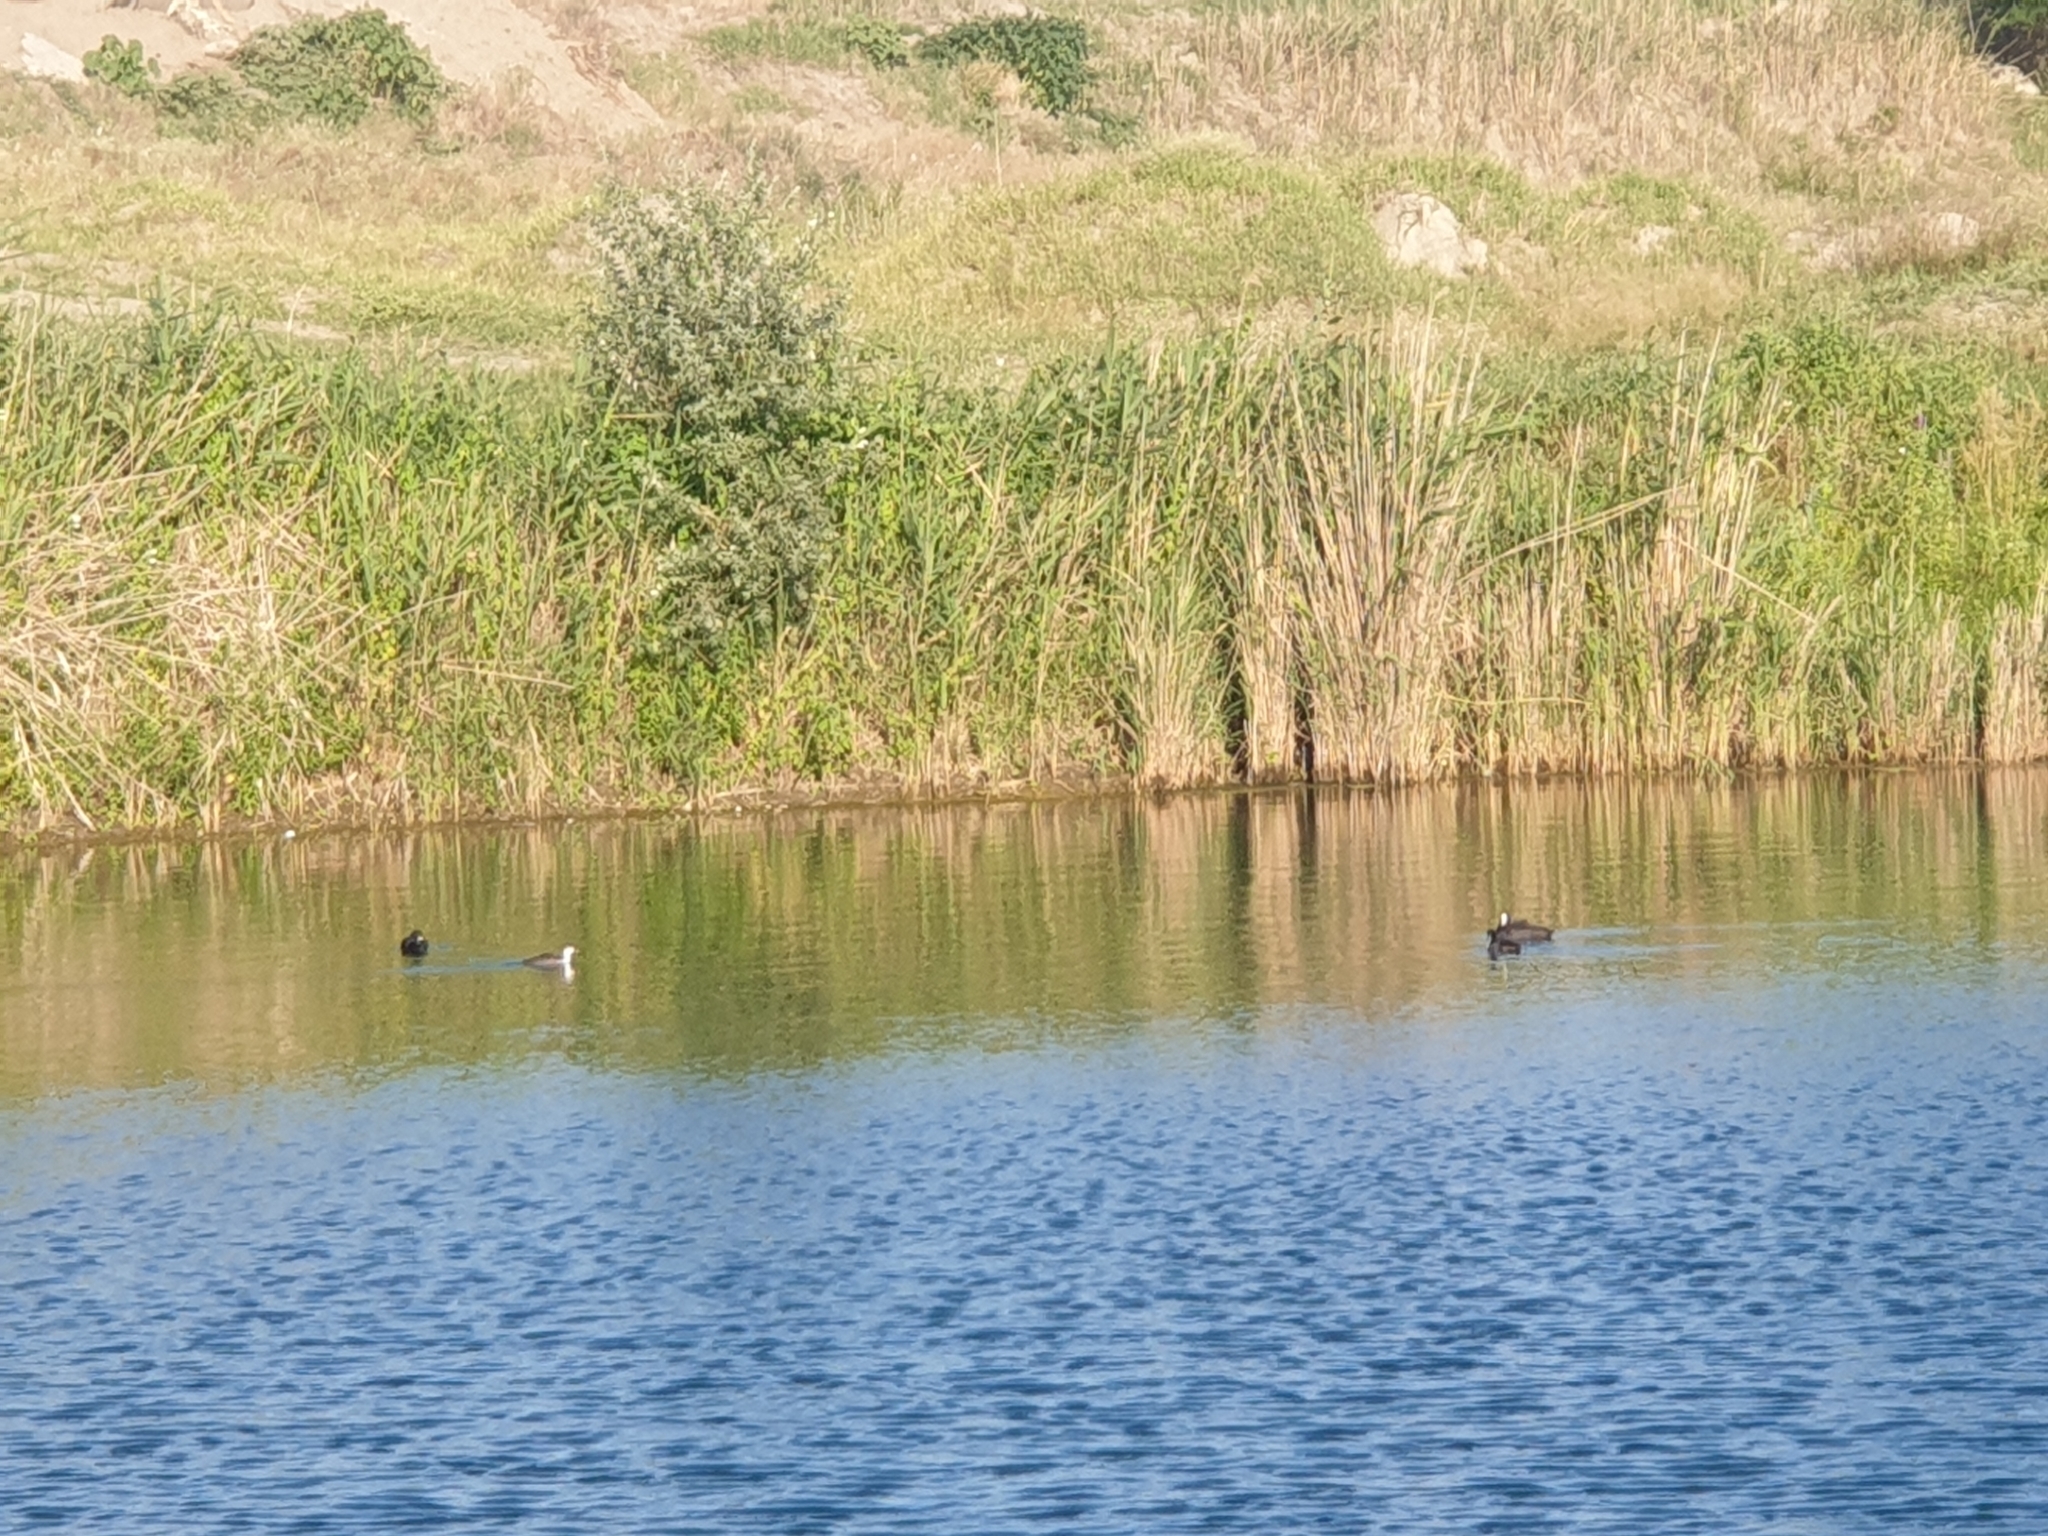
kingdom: Animalia
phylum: Chordata
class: Aves
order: Gruiformes
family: Rallidae
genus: Fulica
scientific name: Fulica atra
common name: Eurasian coot
